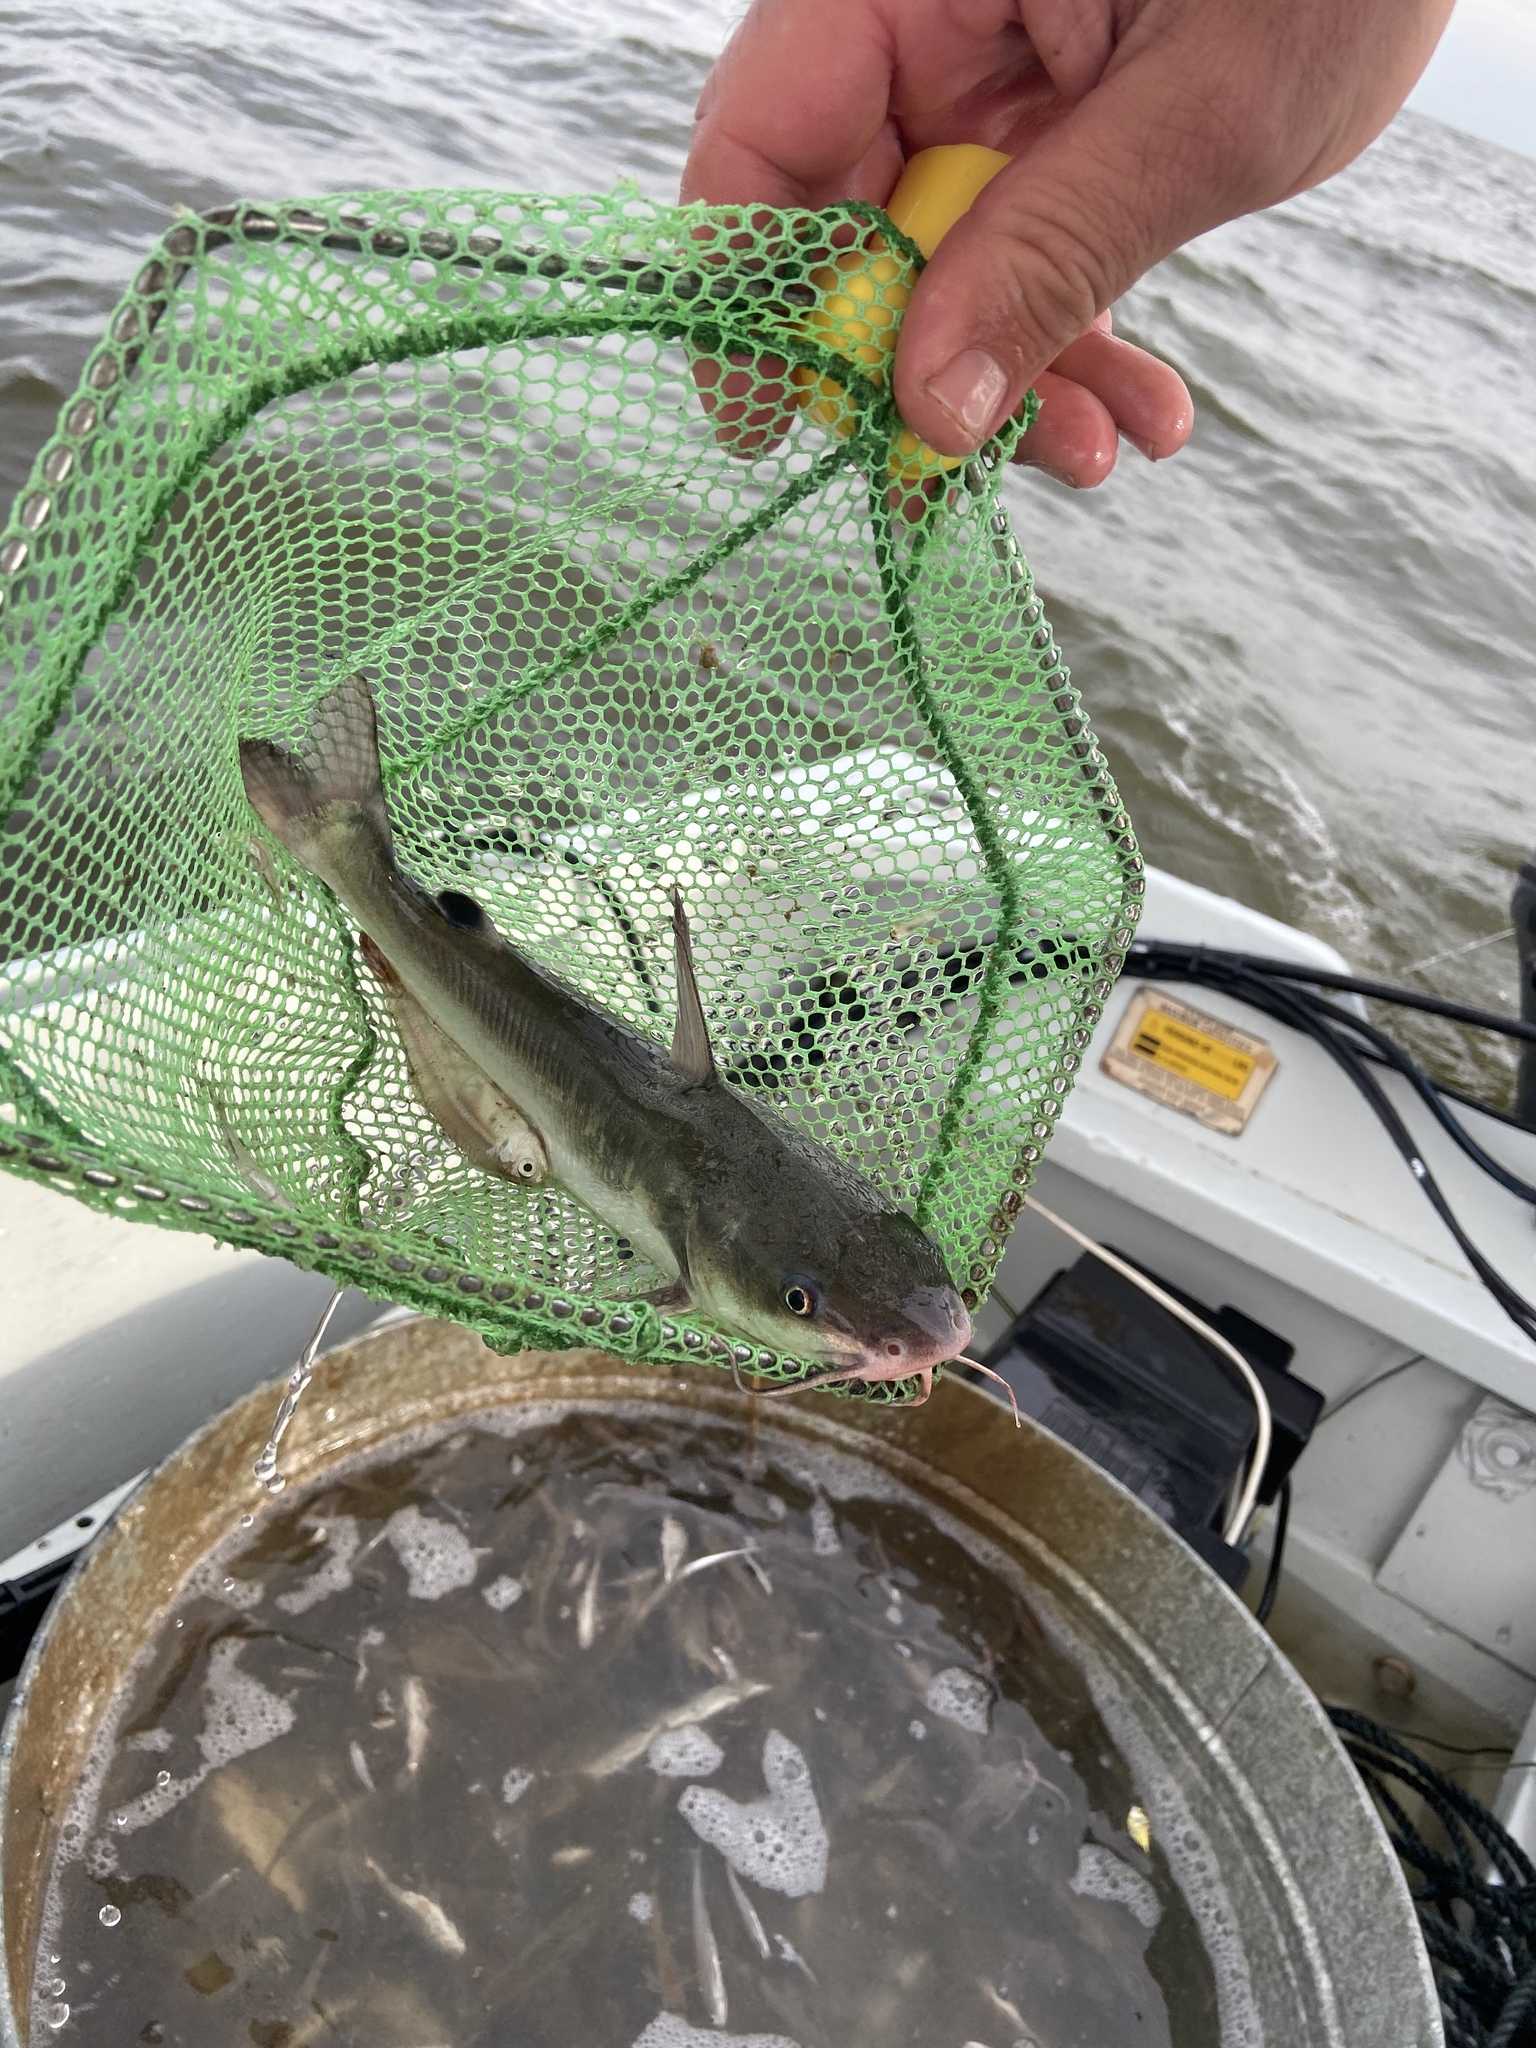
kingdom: Animalia
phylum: Chordata
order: Siluriformes
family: Ariidae
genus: Ariopsis
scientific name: Ariopsis felis
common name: Hardhead catfish
